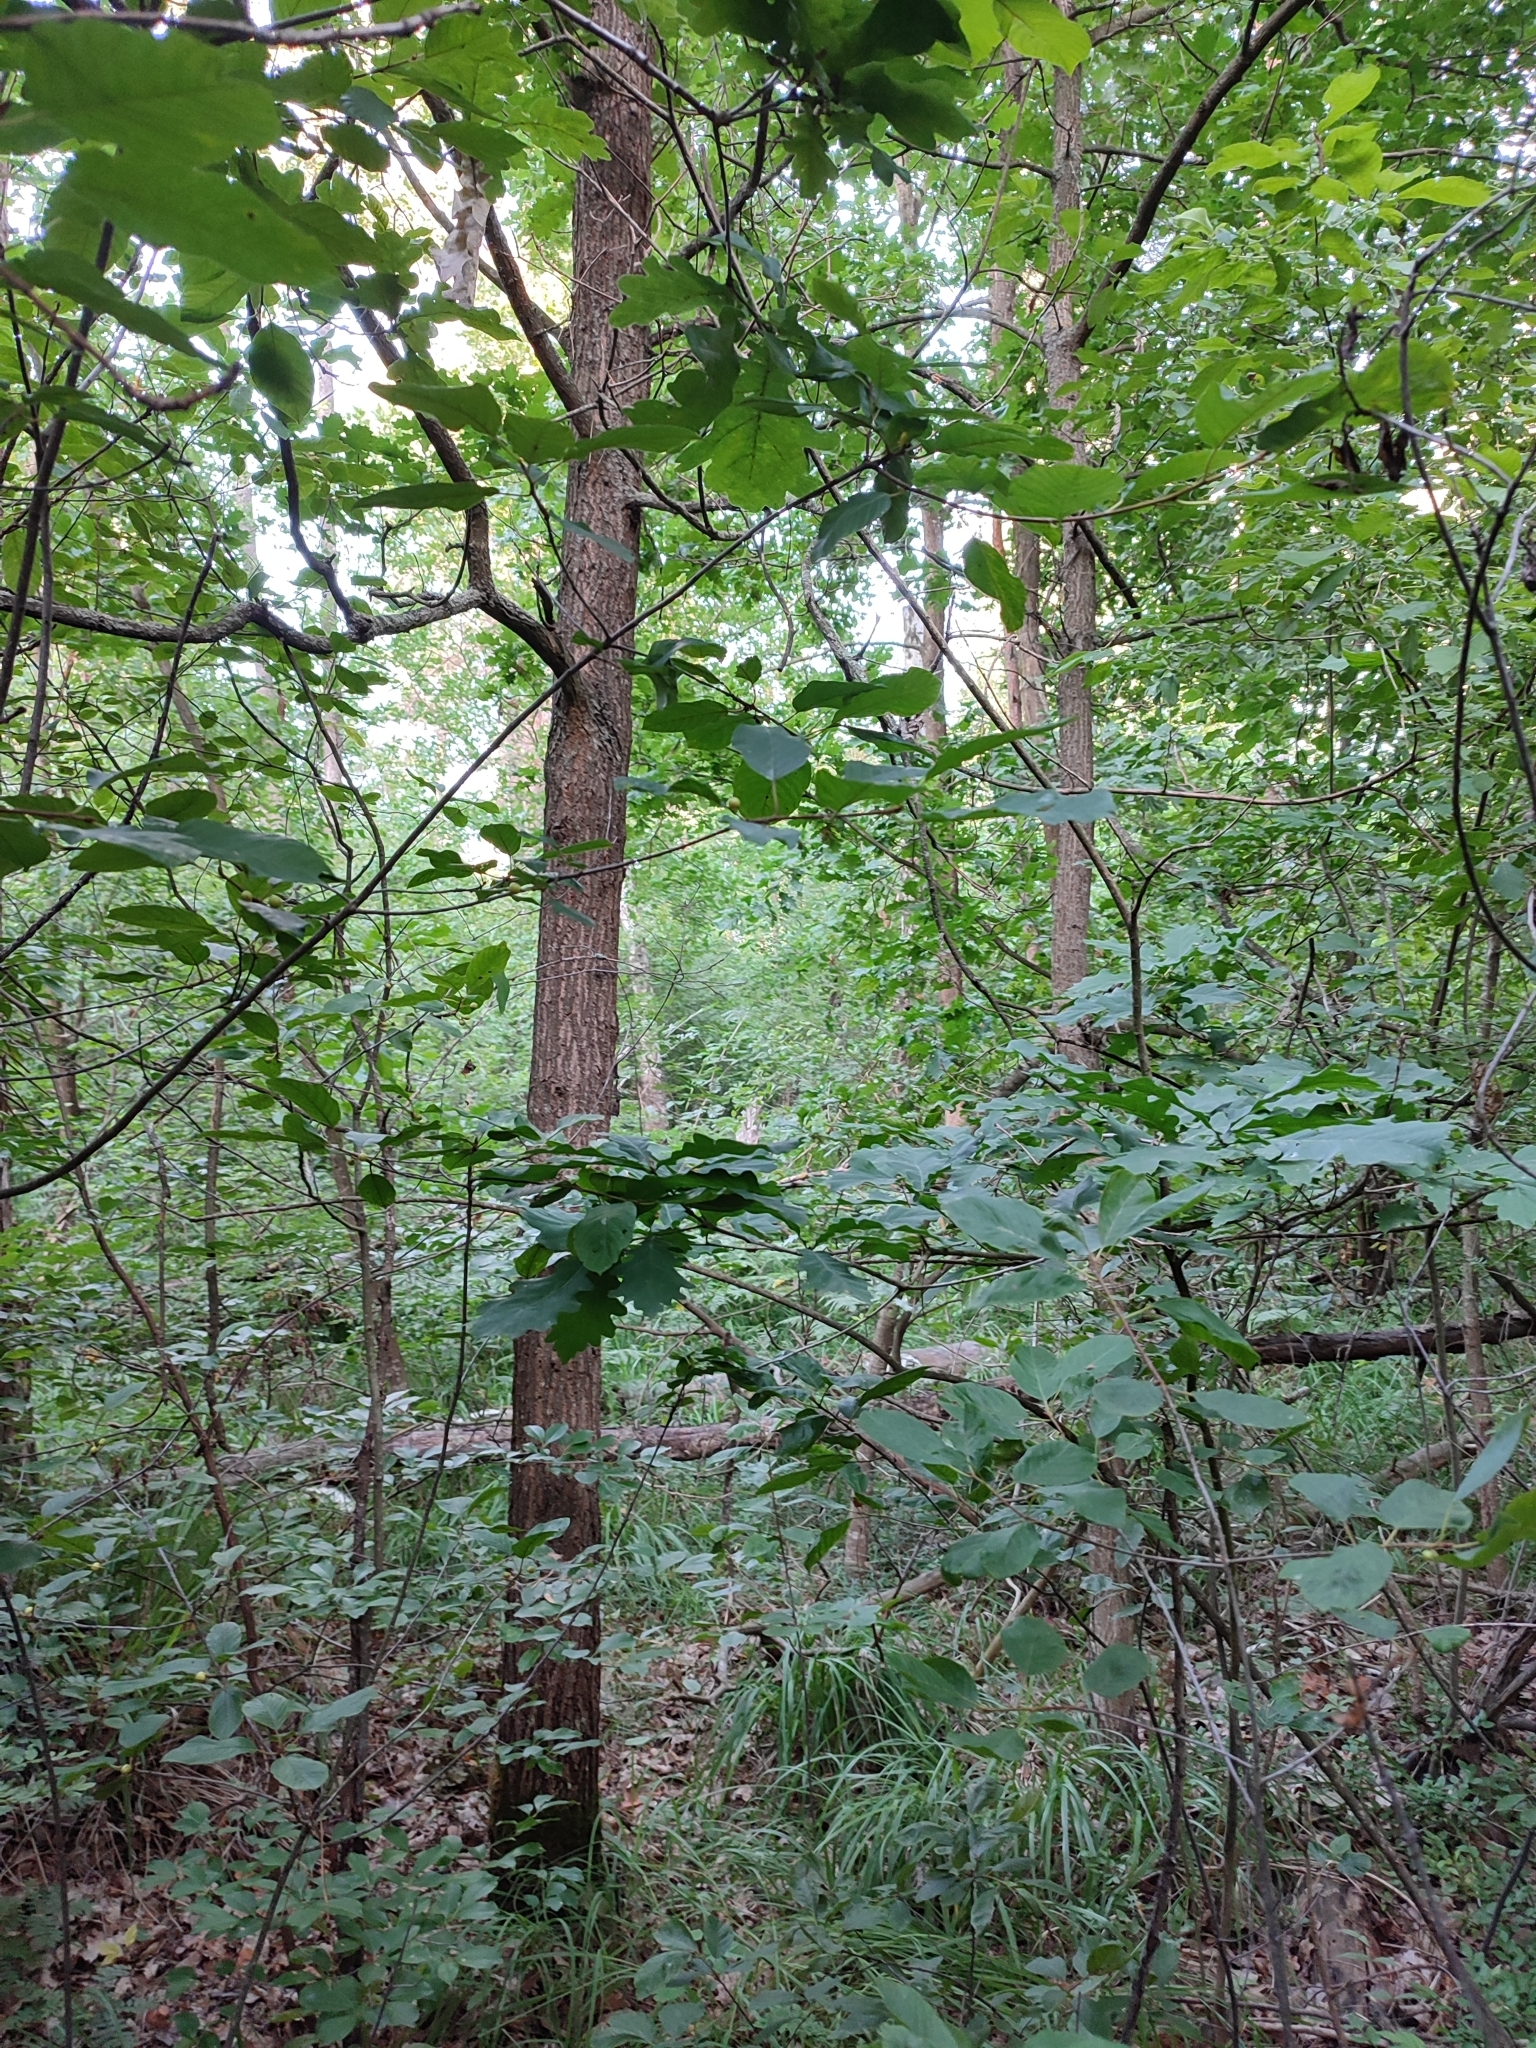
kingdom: Plantae
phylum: Tracheophyta
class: Magnoliopsida
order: Fagales
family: Fagaceae
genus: Quercus
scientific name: Quercus robur
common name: Pedunculate oak
